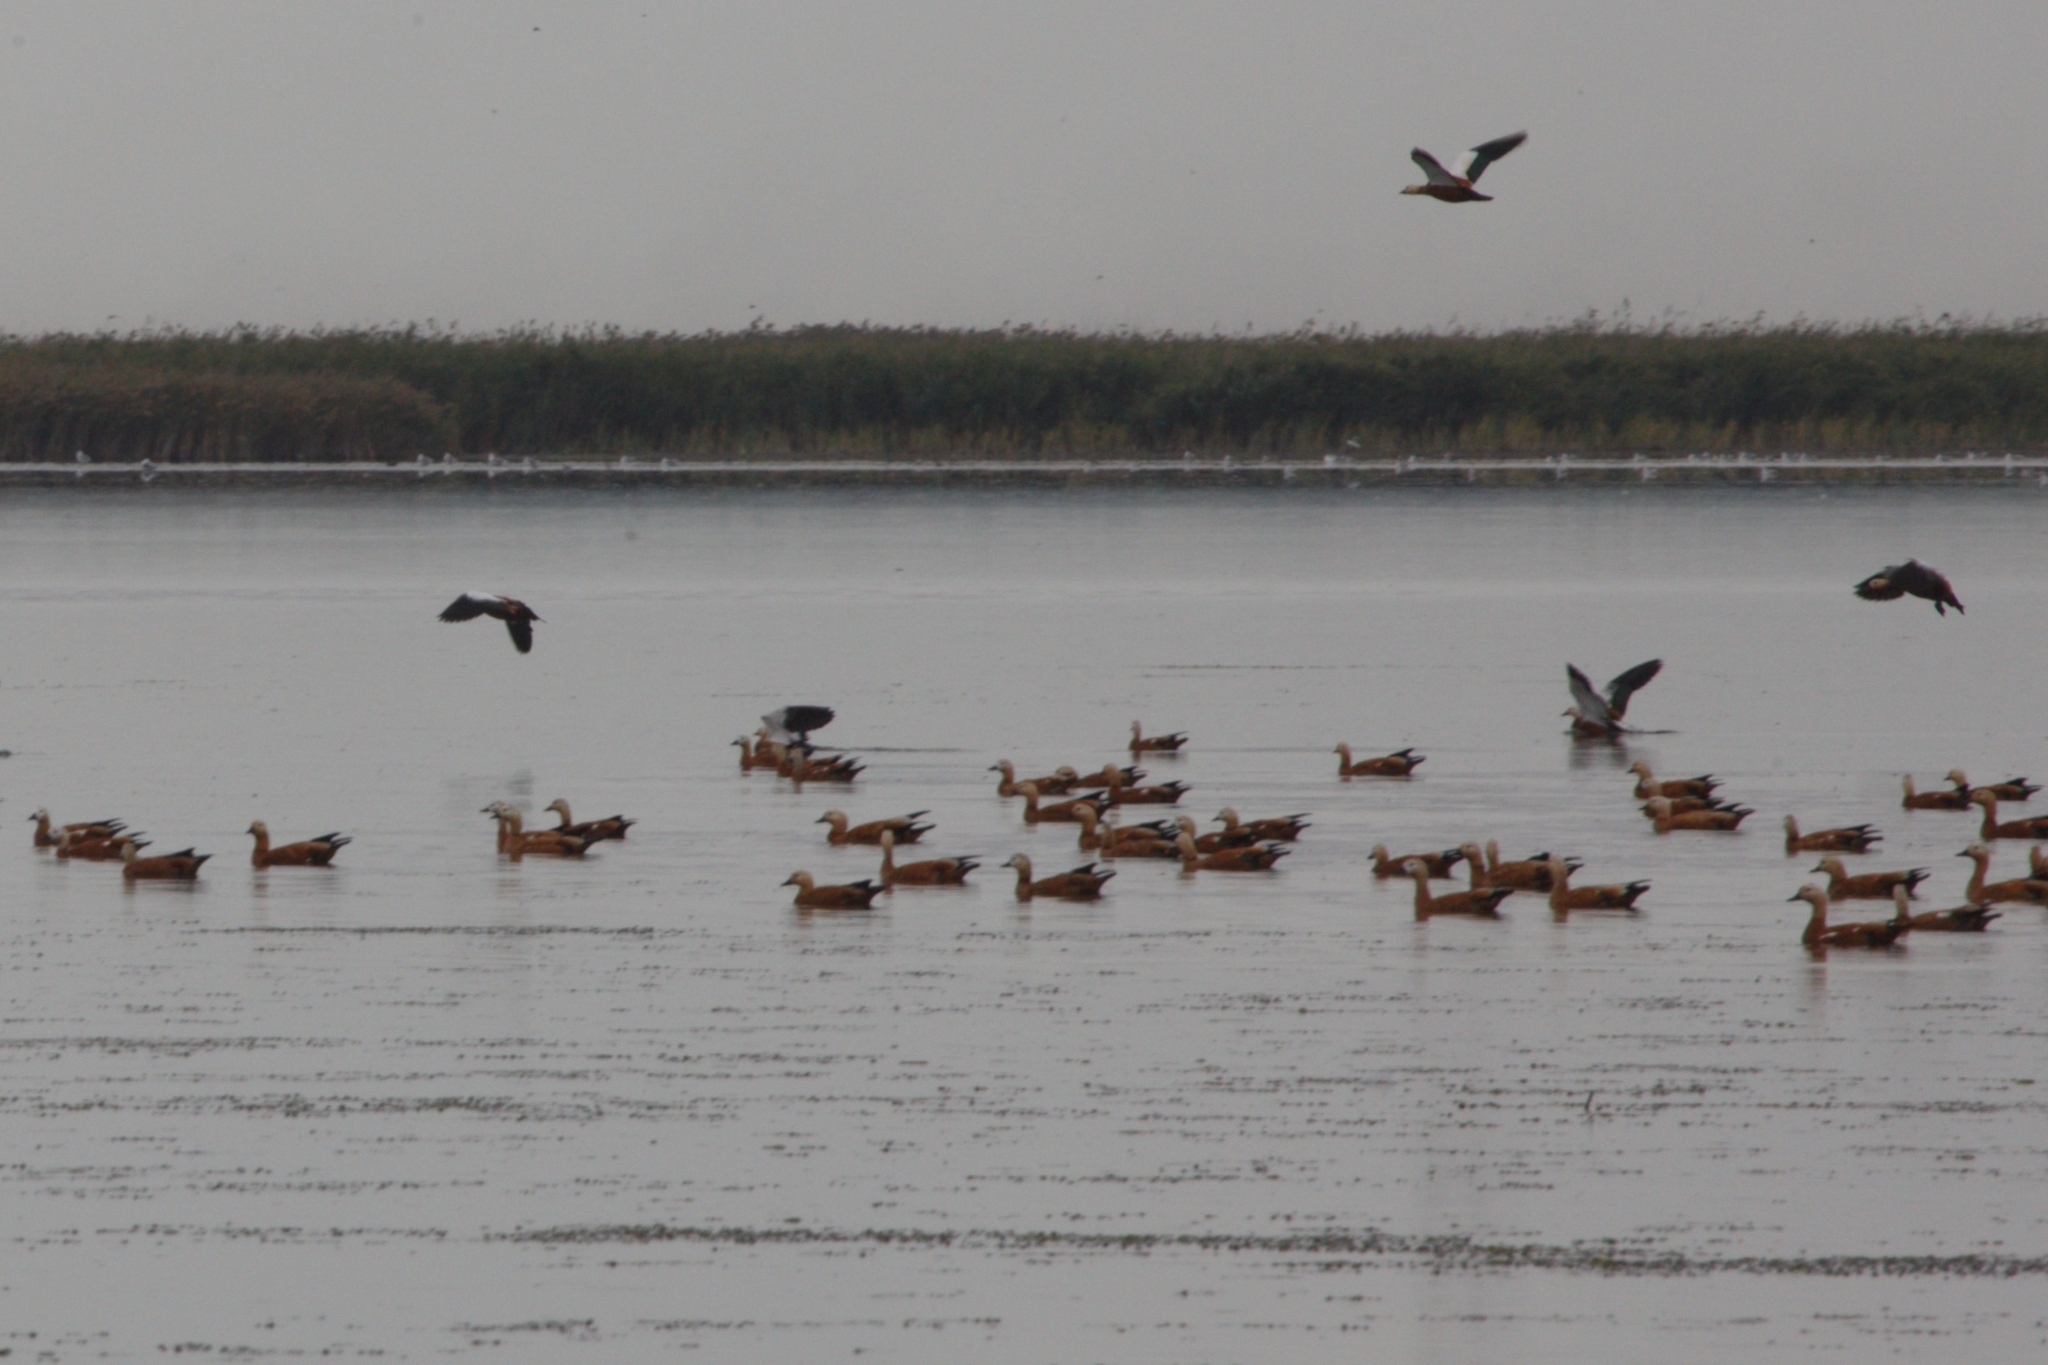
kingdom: Animalia
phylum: Chordata
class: Aves
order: Anseriformes
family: Anatidae
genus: Tadorna
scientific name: Tadorna ferruginea
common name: Ruddy shelduck
